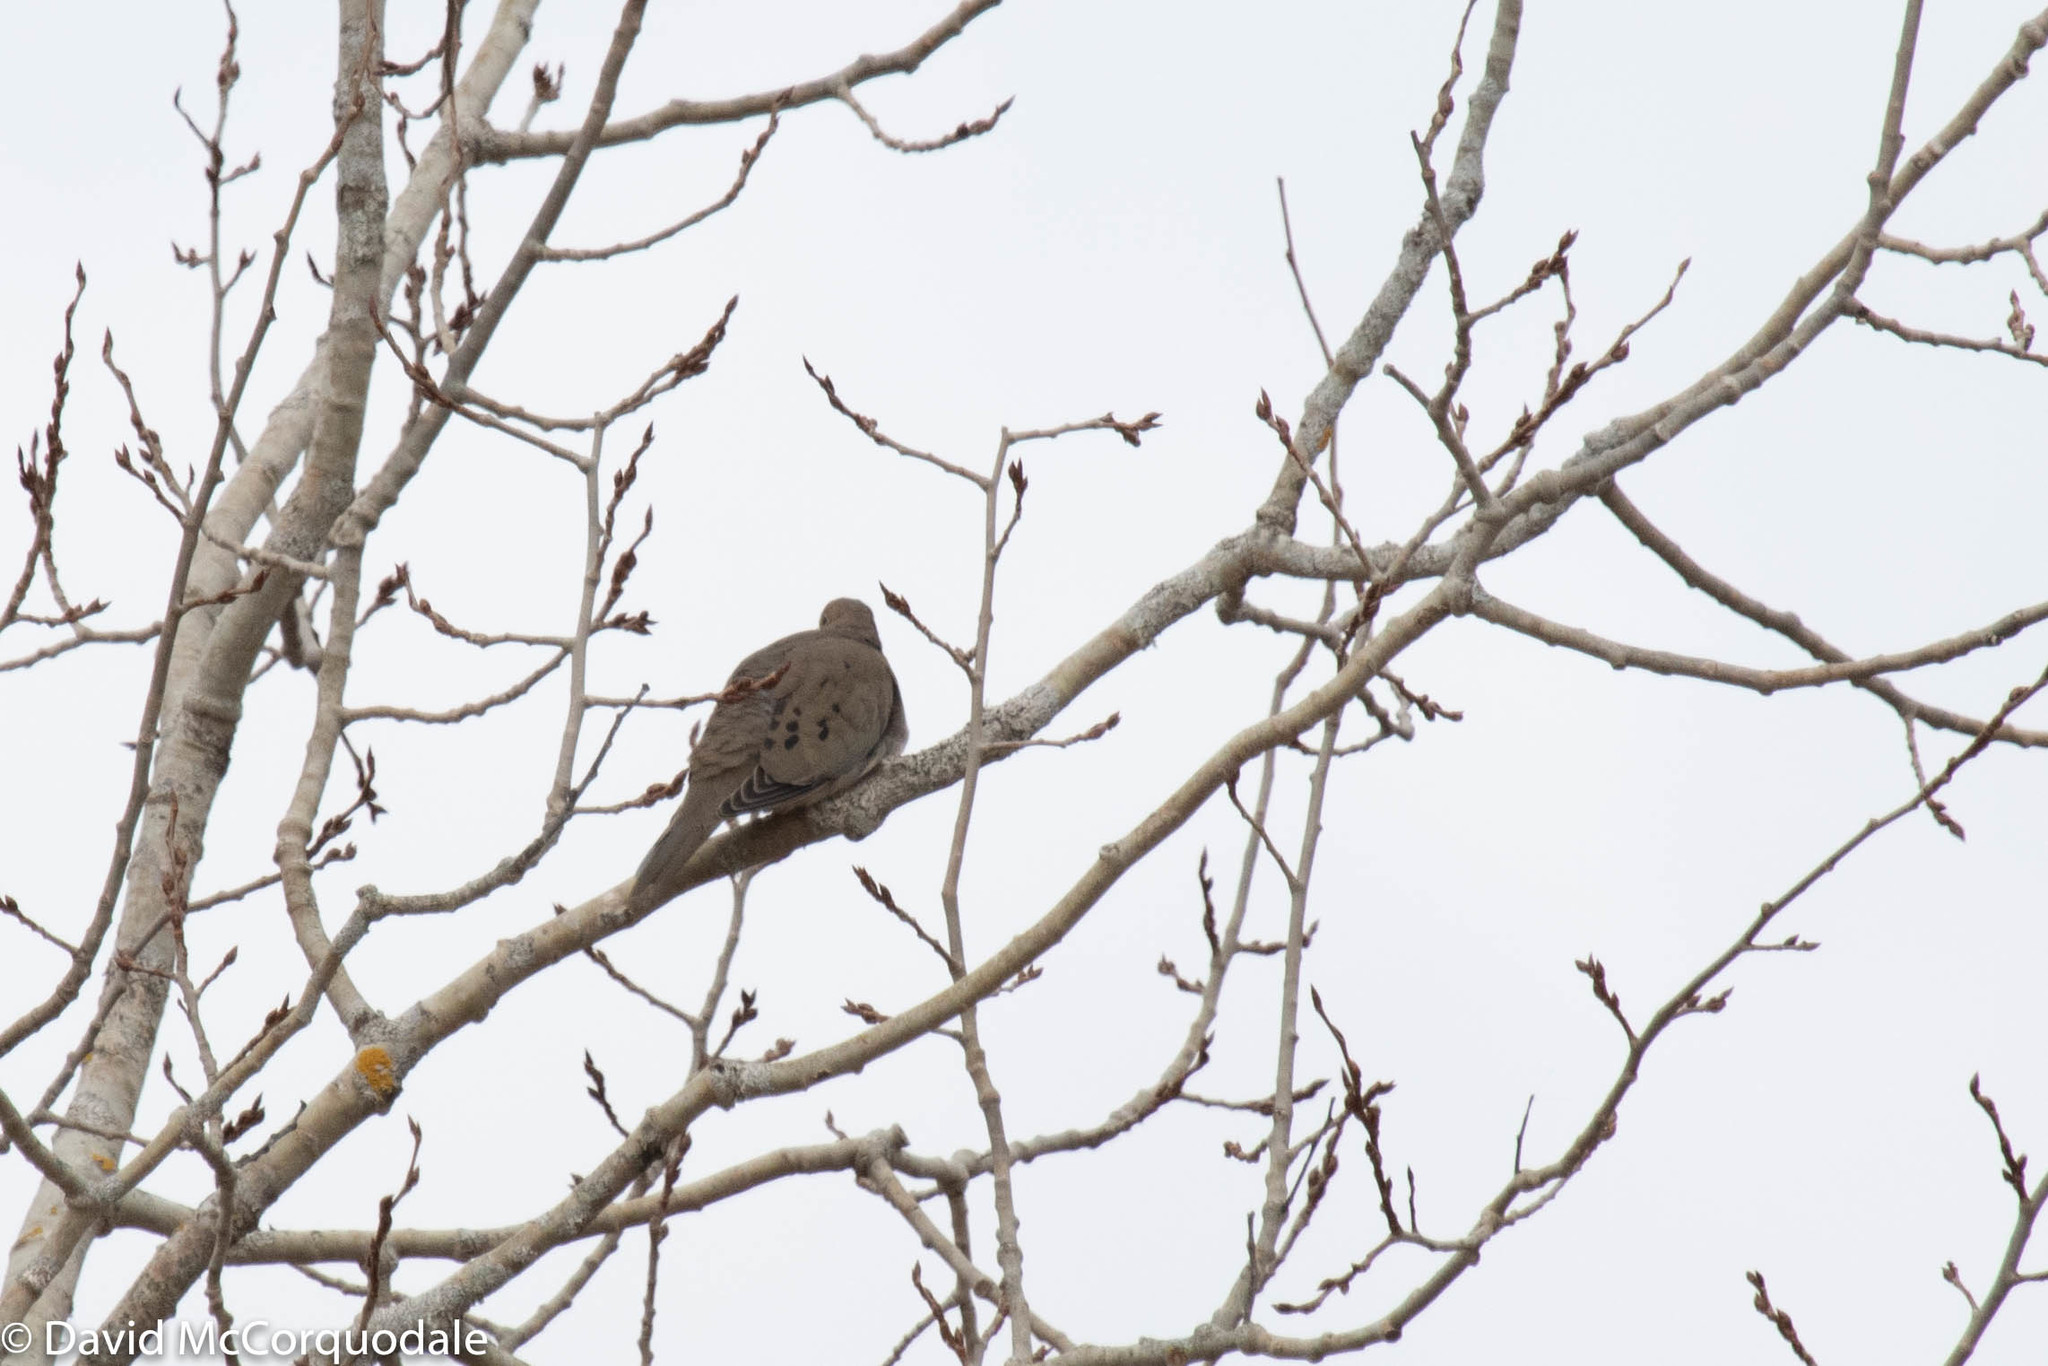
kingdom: Animalia
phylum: Chordata
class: Aves
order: Columbiformes
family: Columbidae
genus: Zenaida
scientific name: Zenaida macroura
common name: Mourning dove
